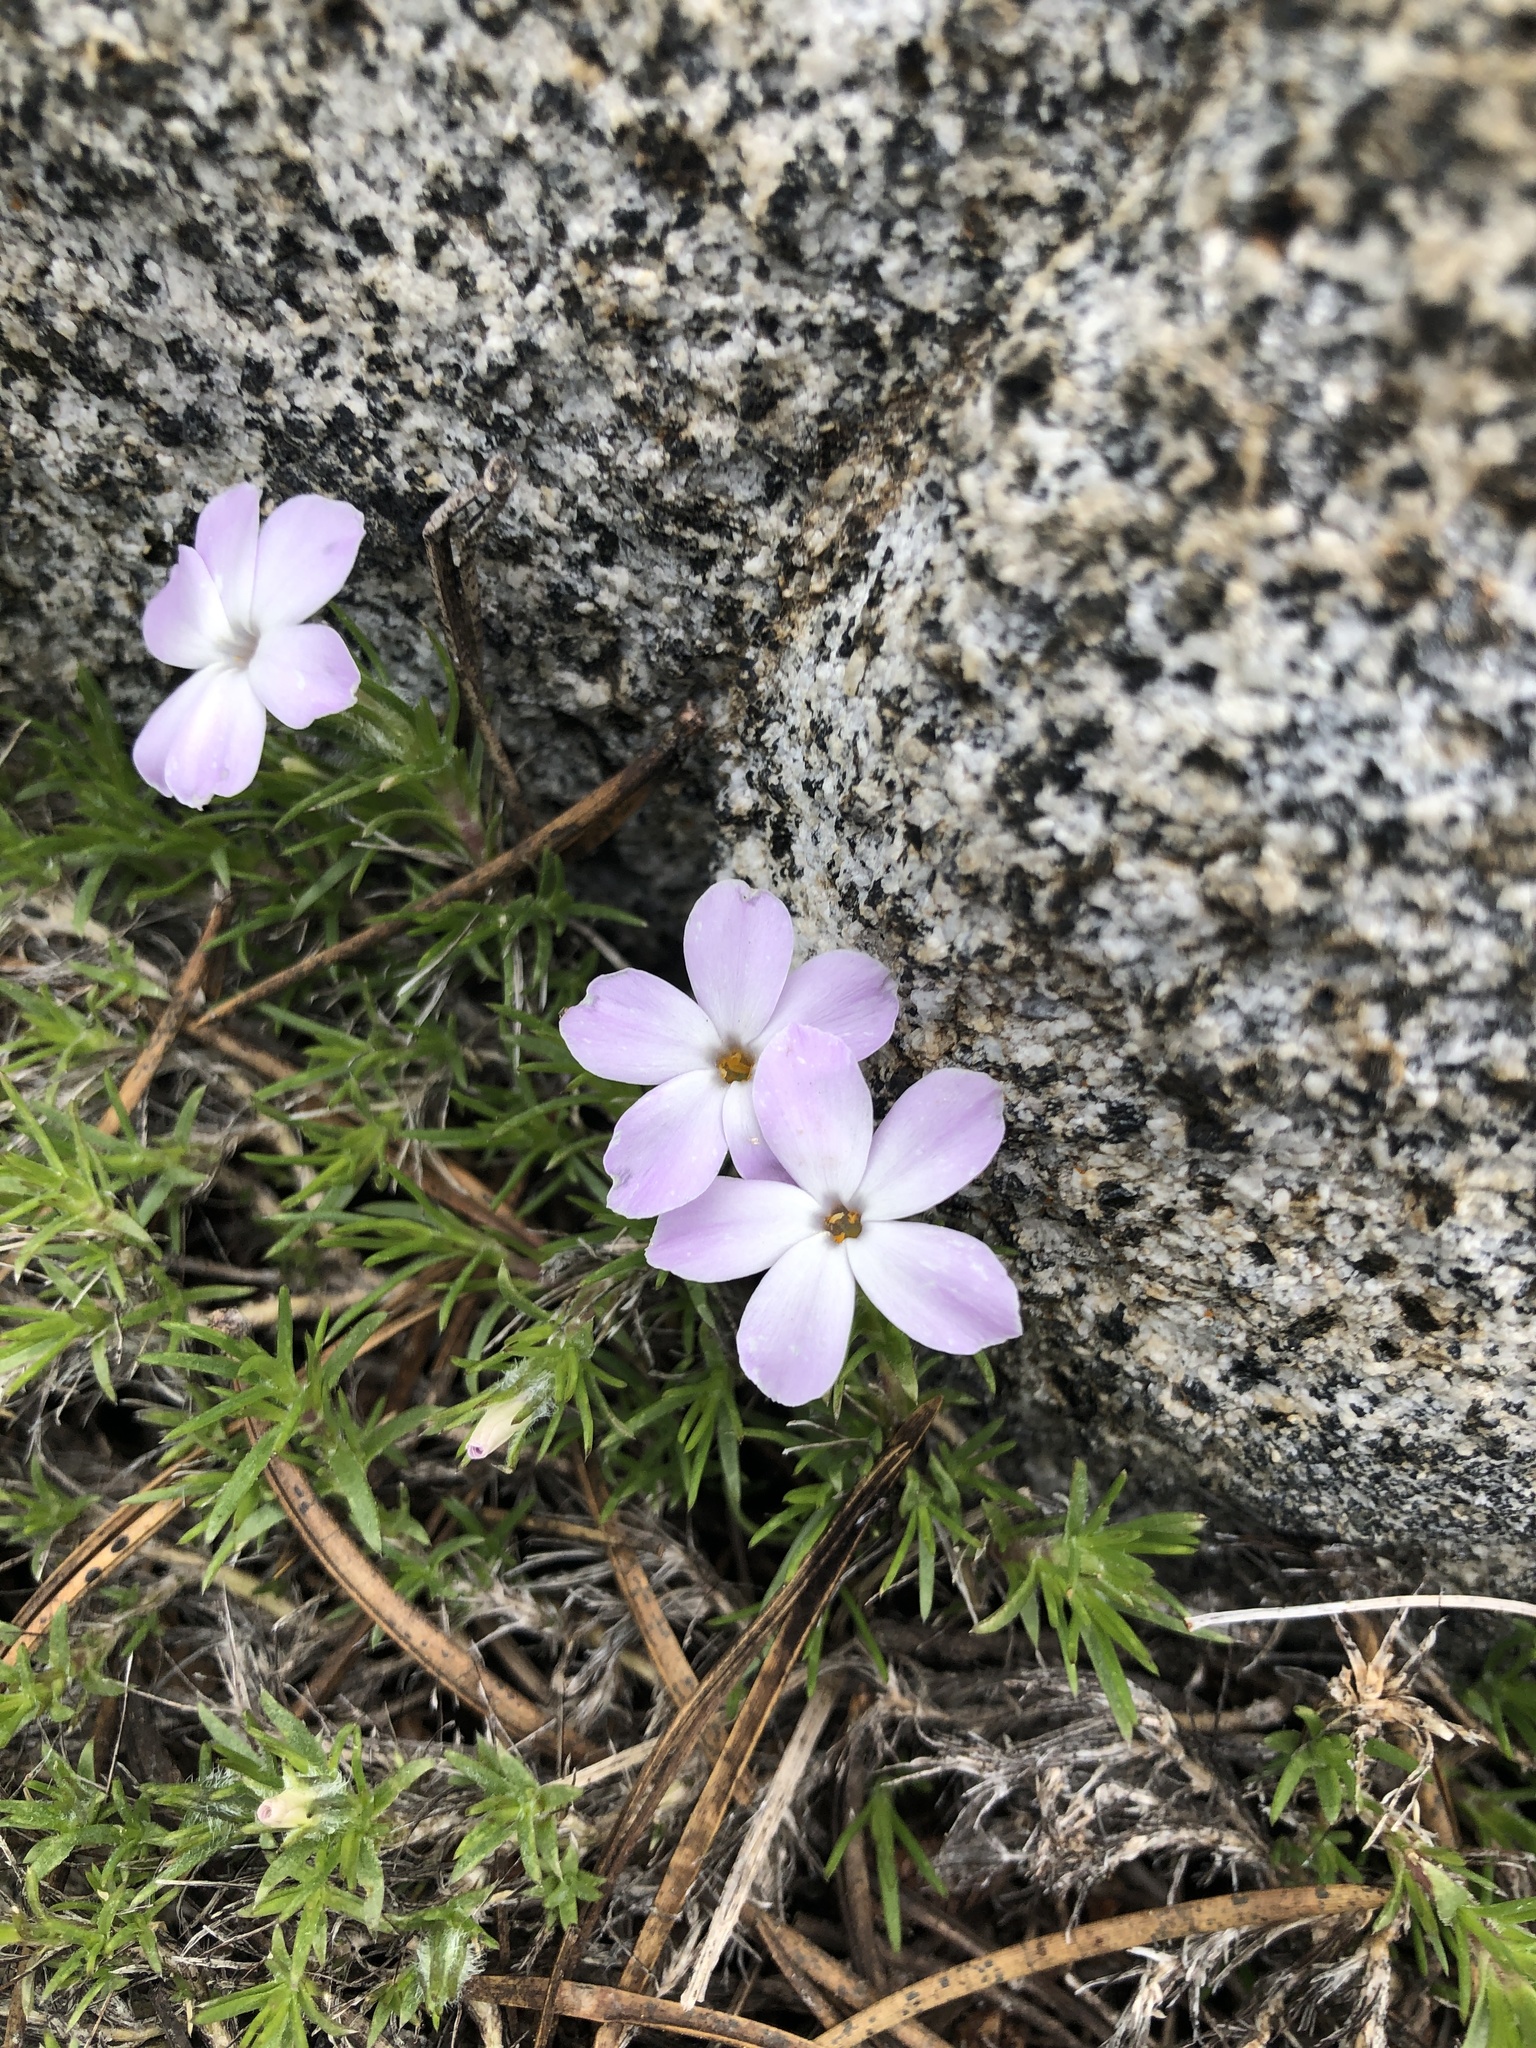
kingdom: Plantae
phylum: Tracheophyta
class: Magnoliopsida
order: Ericales
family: Polemoniaceae
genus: Phlox
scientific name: Phlox diffusa
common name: Mat phlox
